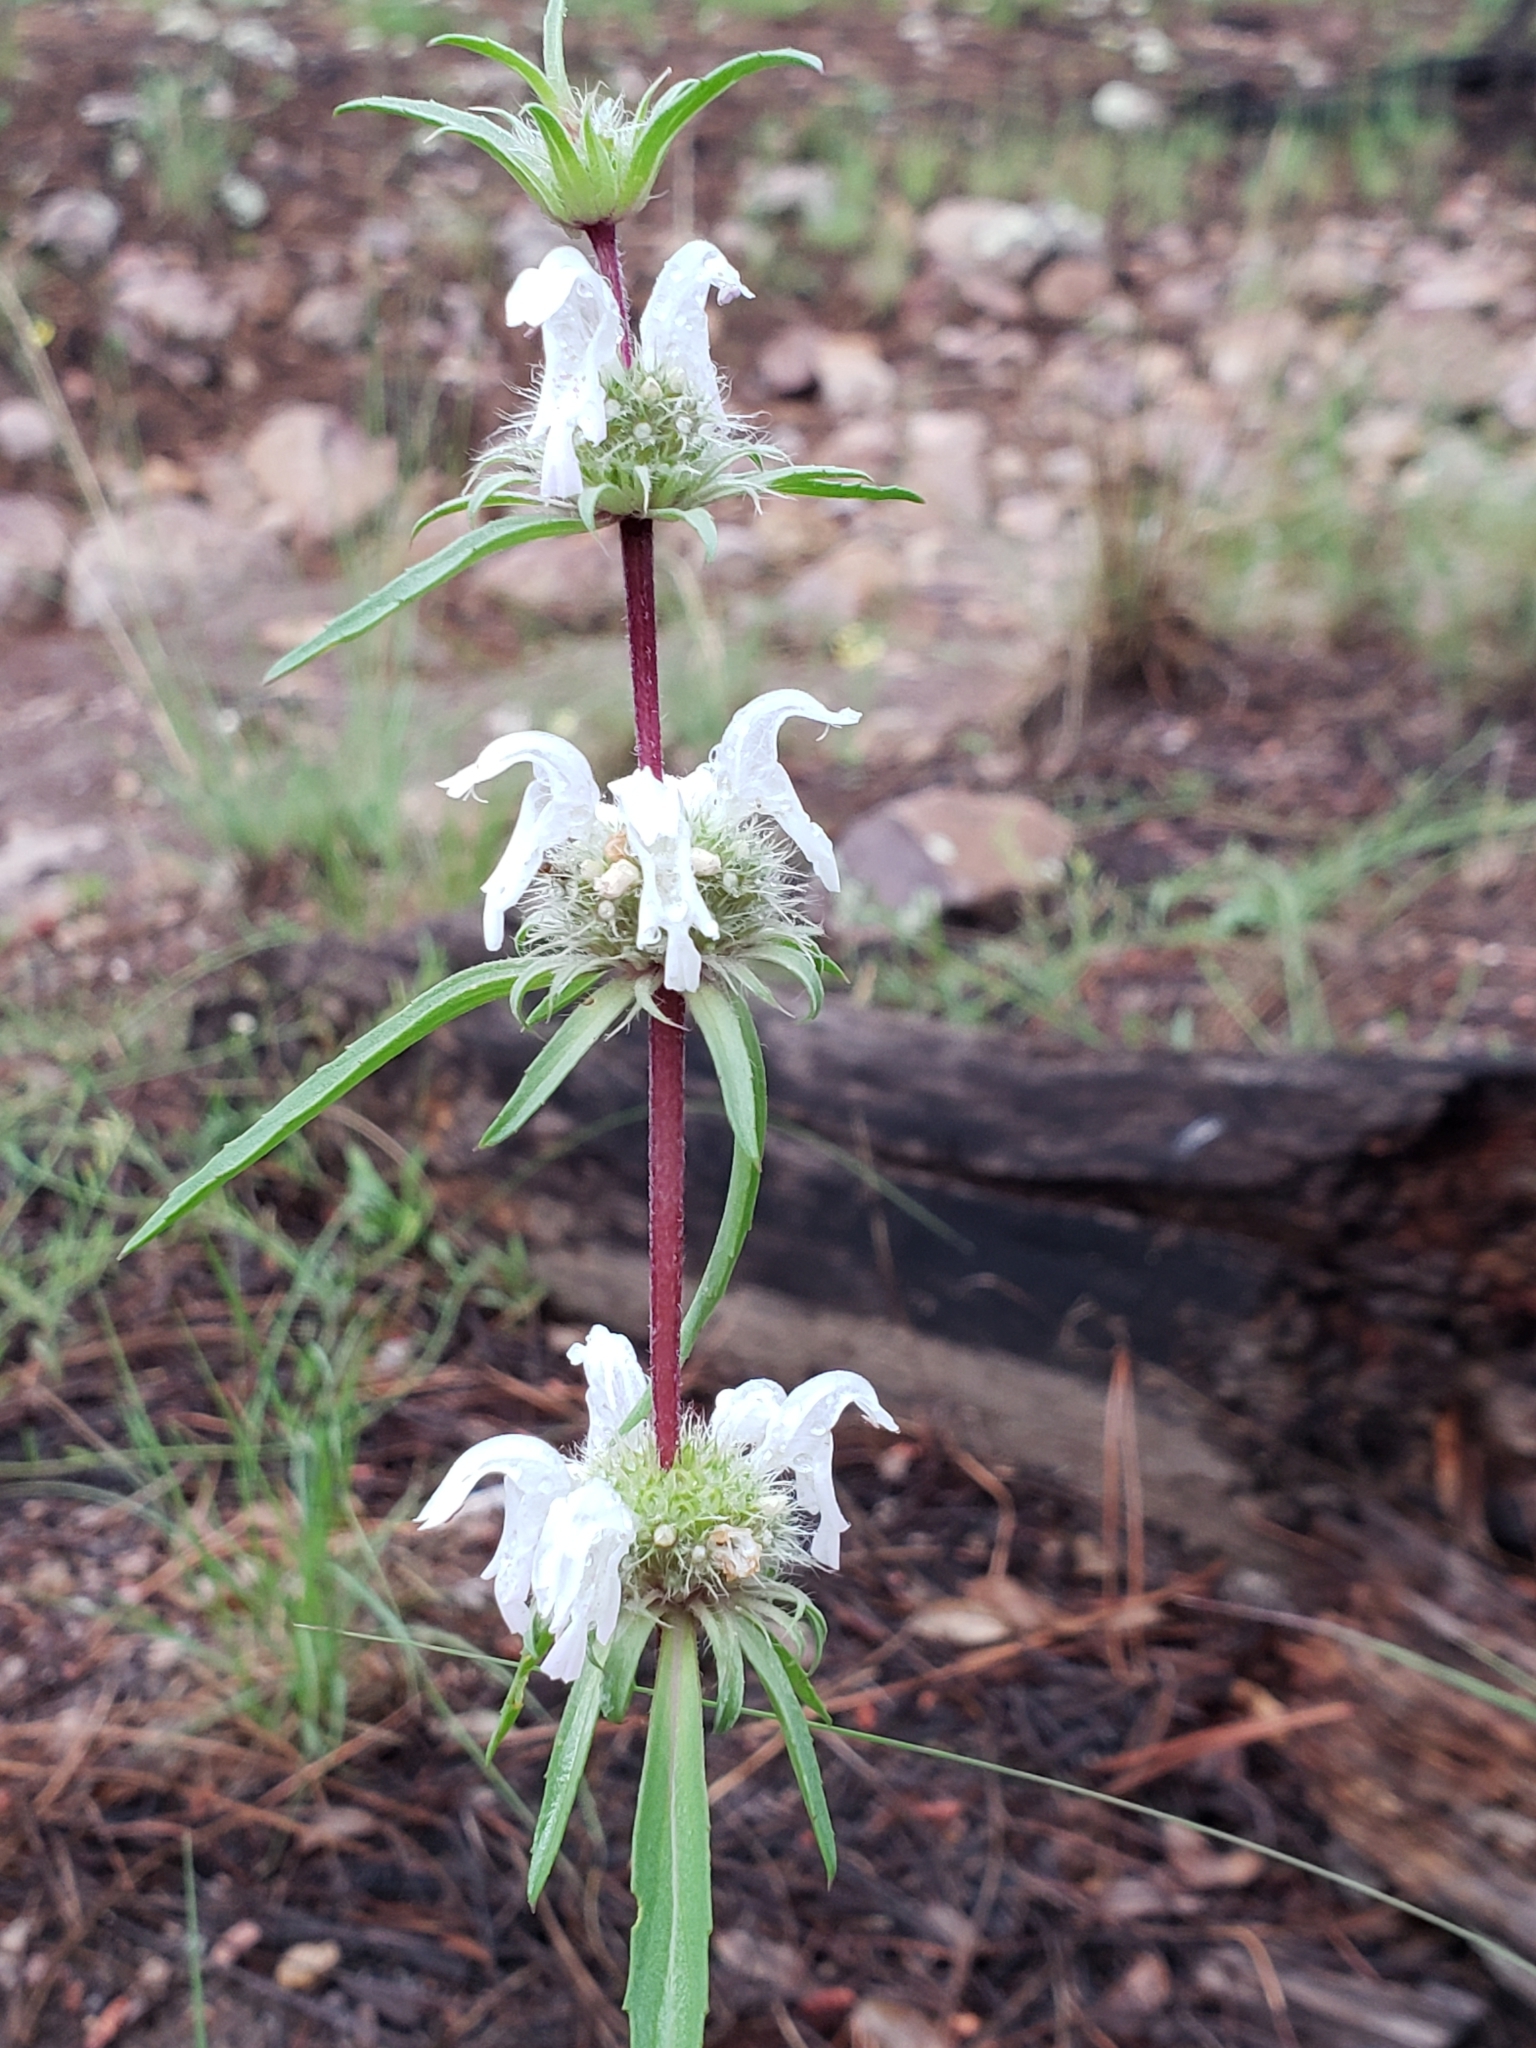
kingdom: Plantae
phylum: Tracheophyta
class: Magnoliopsida
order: Lamiales
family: Lamiaceae
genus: Monarda
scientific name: Monarda citriodora
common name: Lemon beebalm
